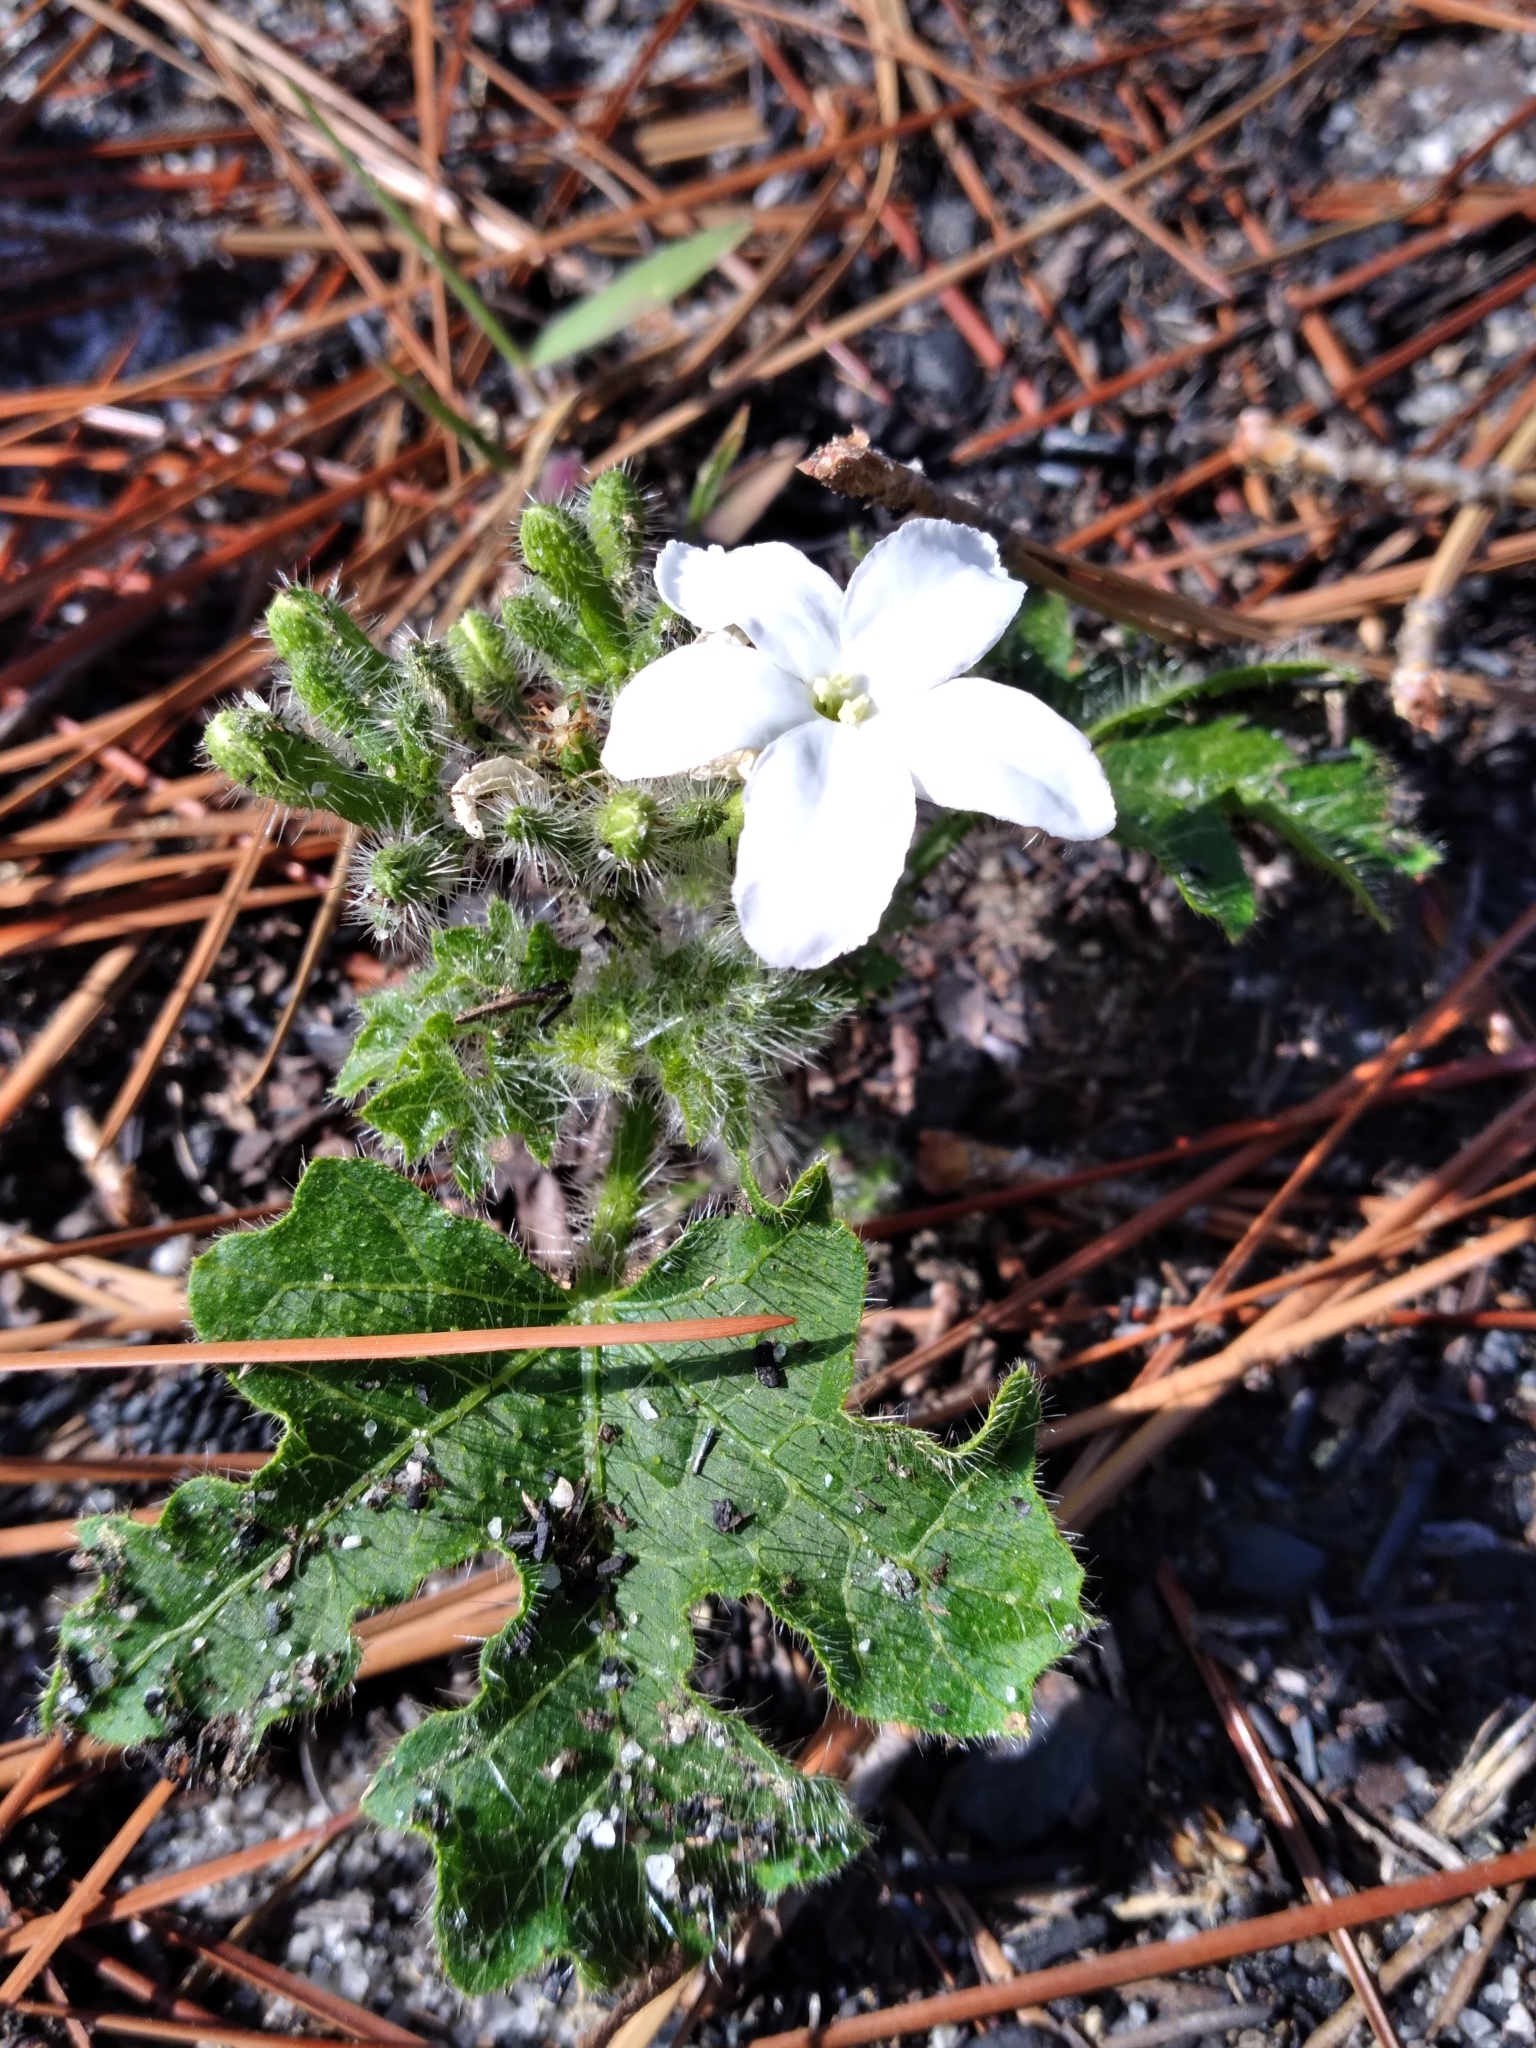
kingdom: Plantae
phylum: Tracheophyta
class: Magnoliopsida
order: Malpighiales
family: Euphorbiaceae
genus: Cnidoscolus
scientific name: Cnidoscolus stimulosus
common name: Bull-nettle
